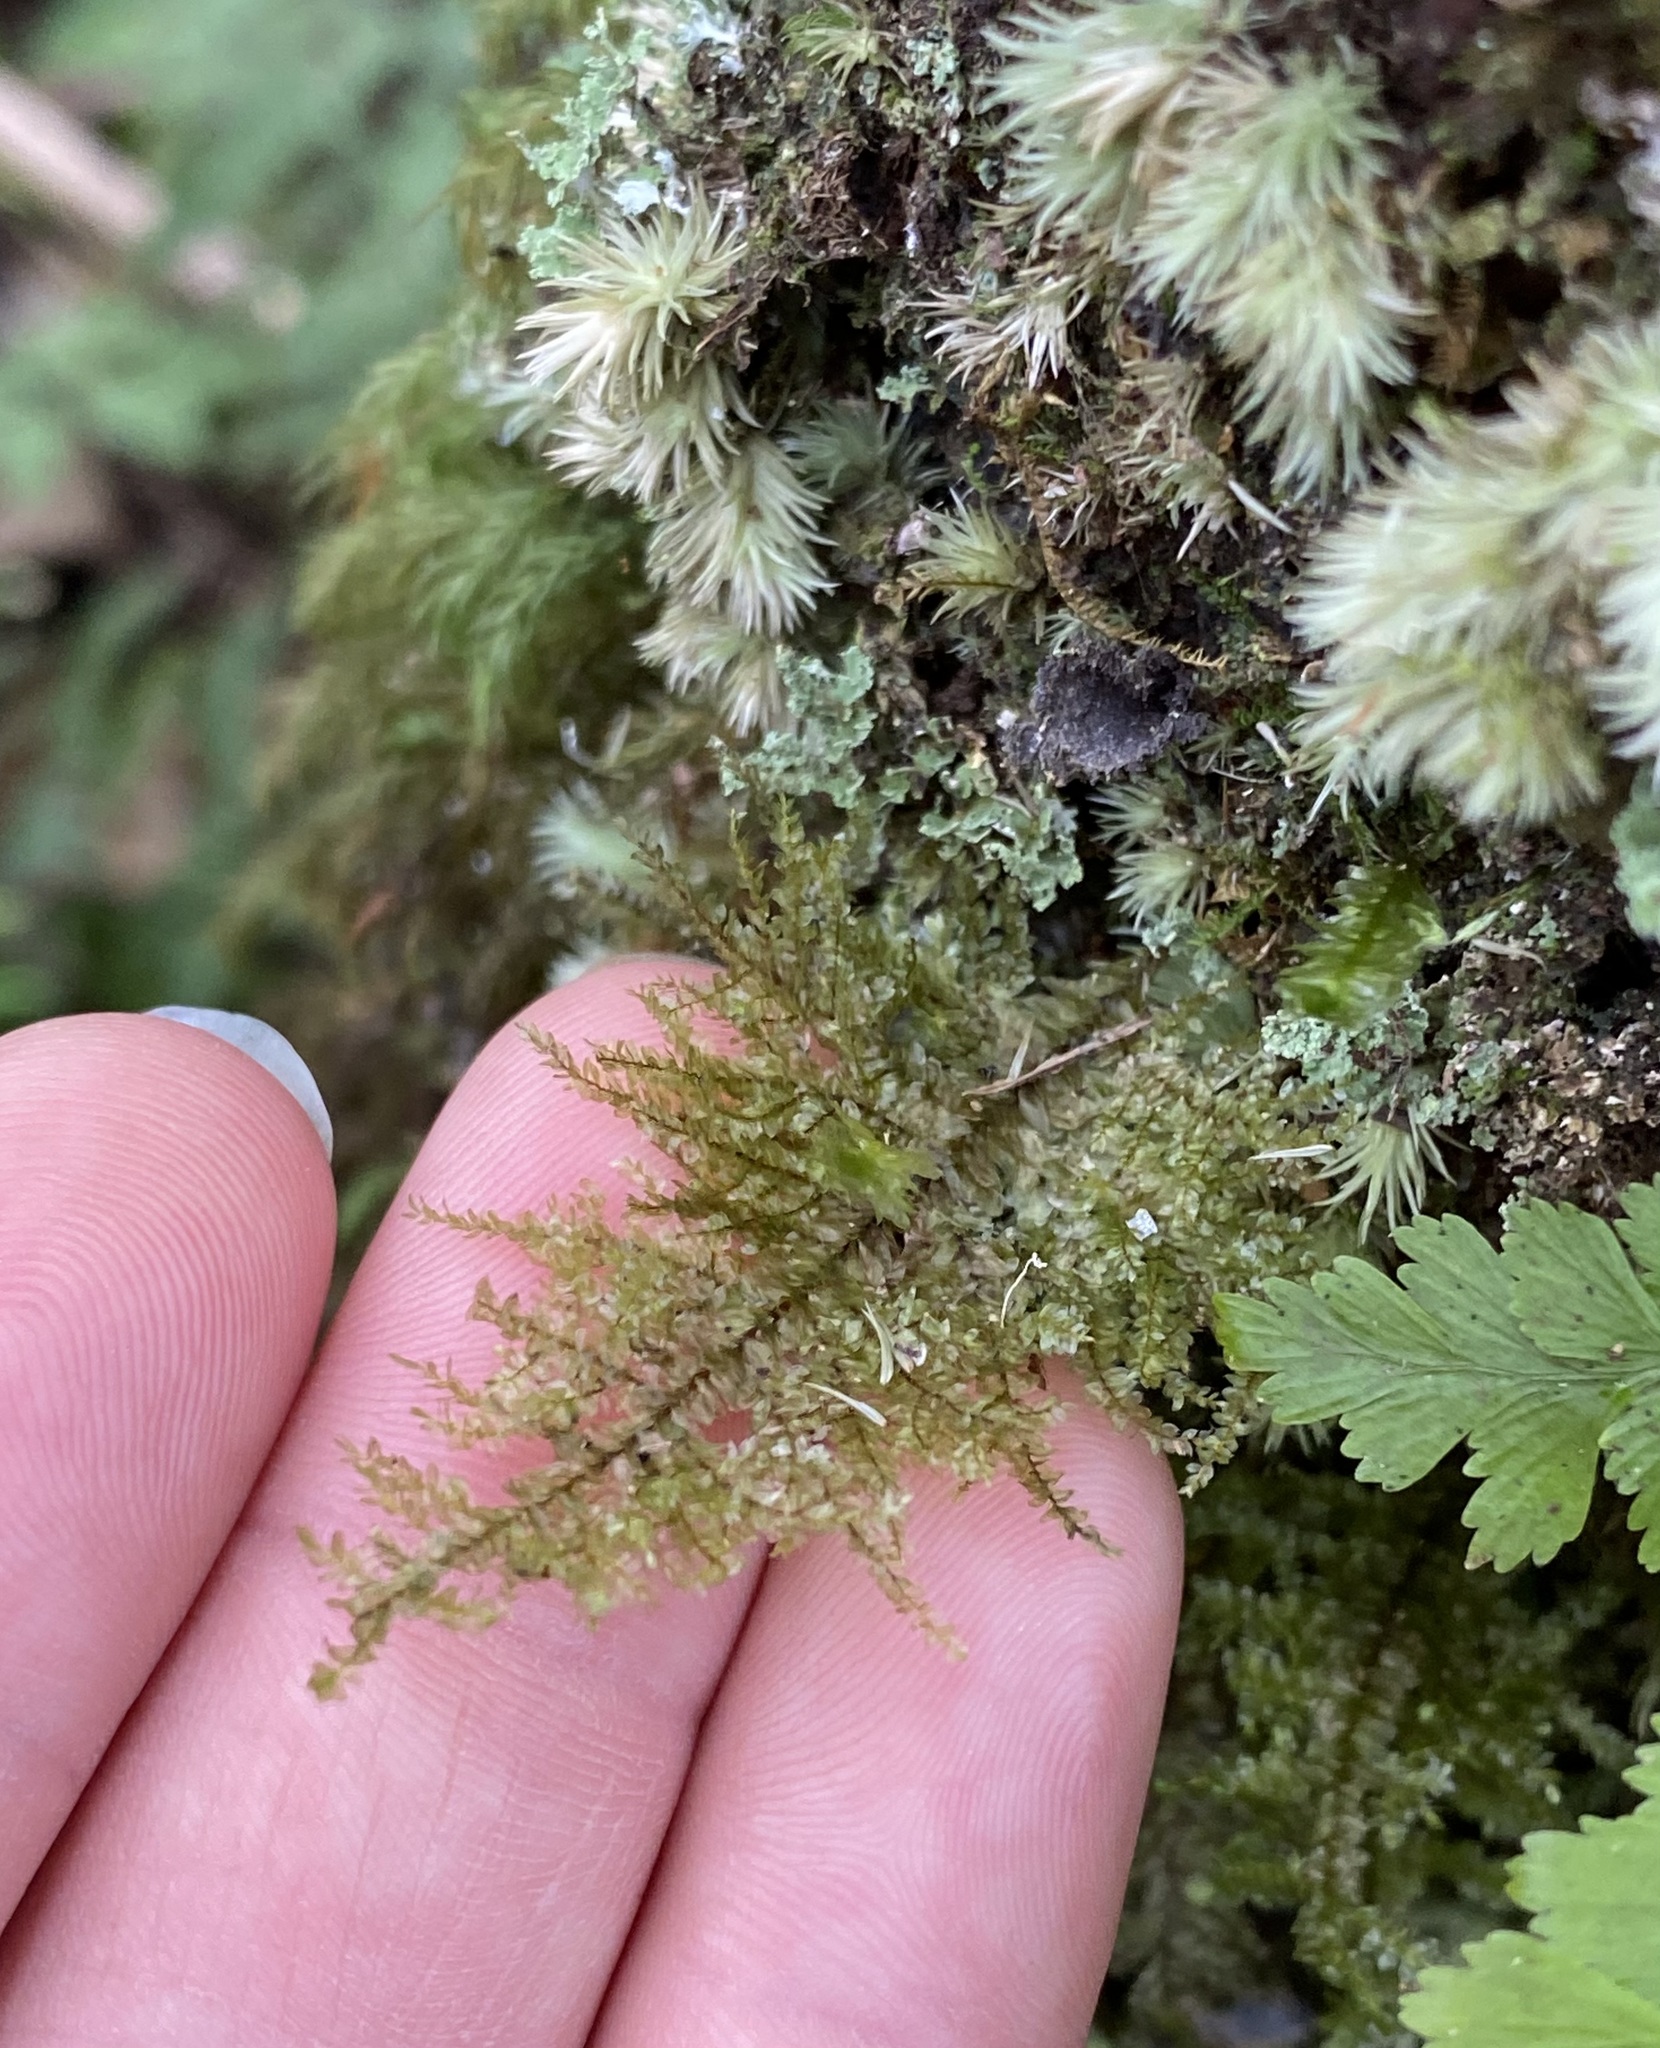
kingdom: Plantae
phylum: Bryophyta
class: Bryopsida
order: Hypnales
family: Neckeraceae
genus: Homaliodendron
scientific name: Homaliodendron flabellatum
